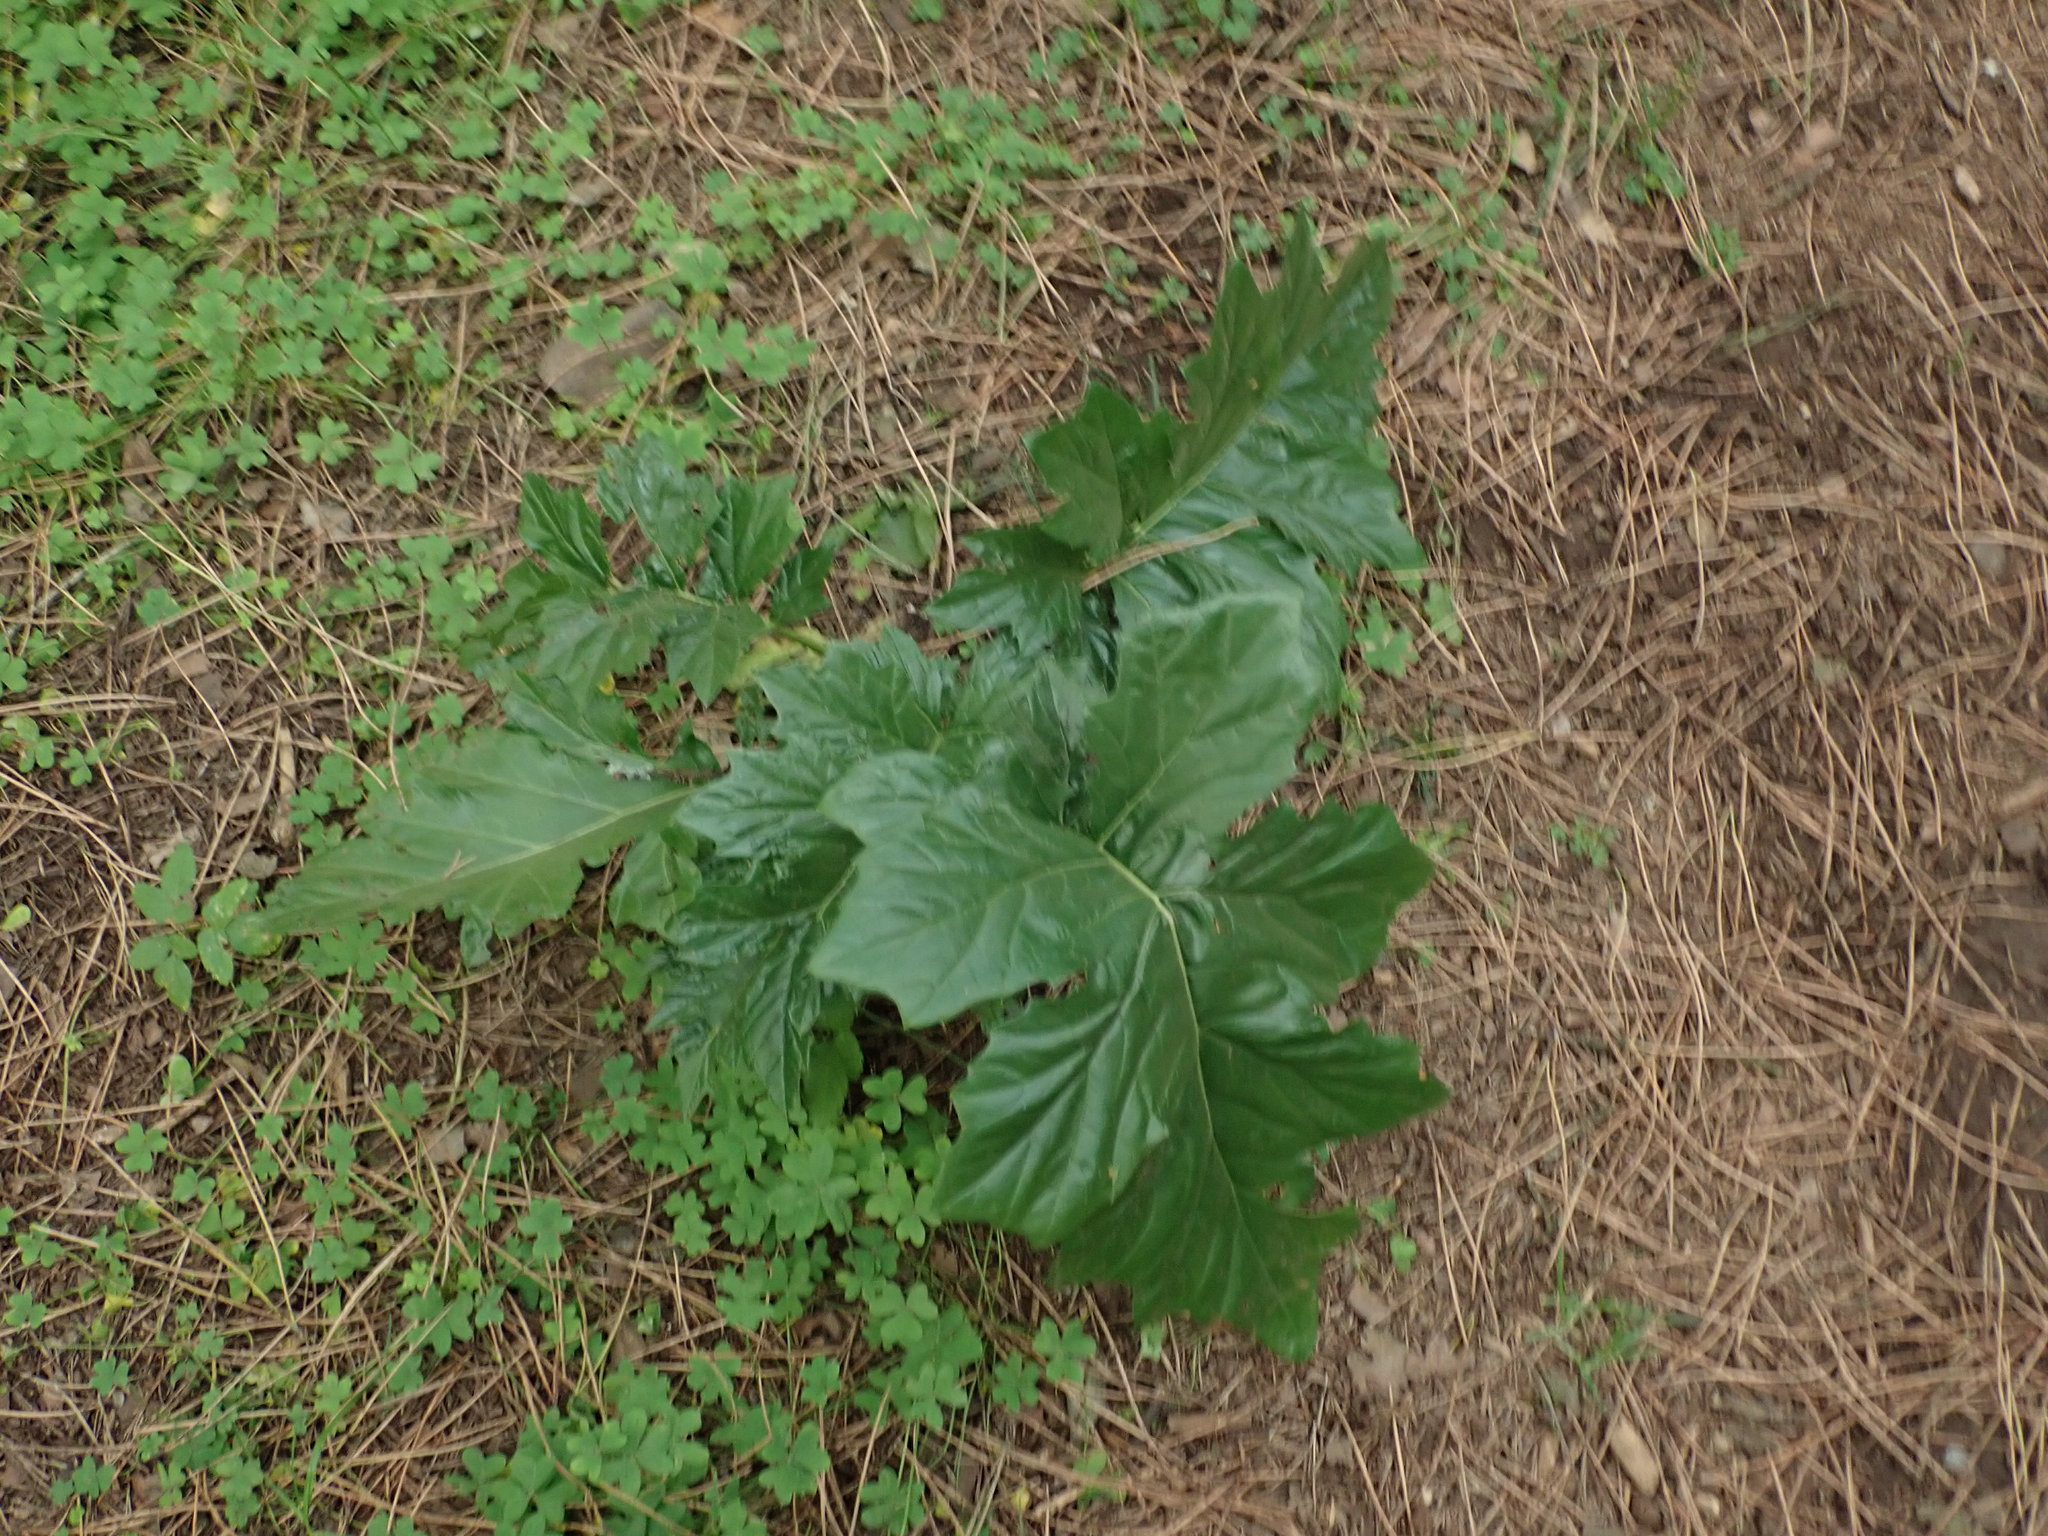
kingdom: Plantae
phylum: Tracheophyta
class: Magnoliopsida
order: Lamiales
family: Acanthaceae
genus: Acanthus
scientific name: Acanthus mollis
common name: Bear's-breech
